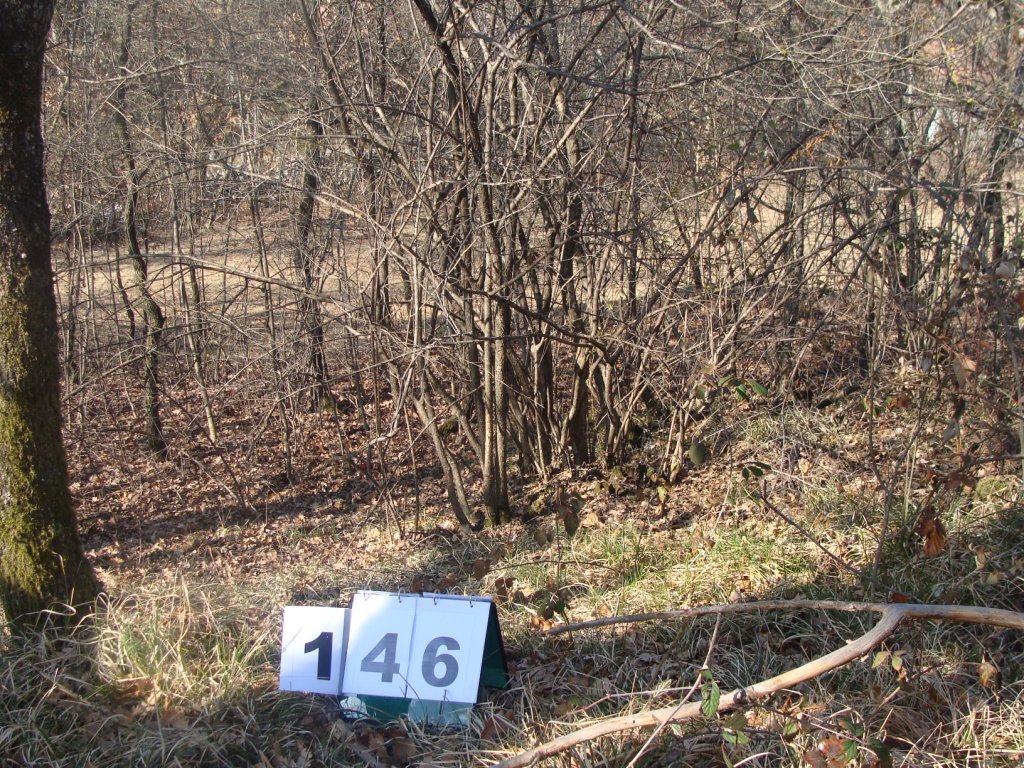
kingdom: Plantae
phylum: Tracheophyta
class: Magnoliopsida
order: Cornales
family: Cornaceae
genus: Cornus
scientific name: Cornus mas
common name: Cornelian-cherry
